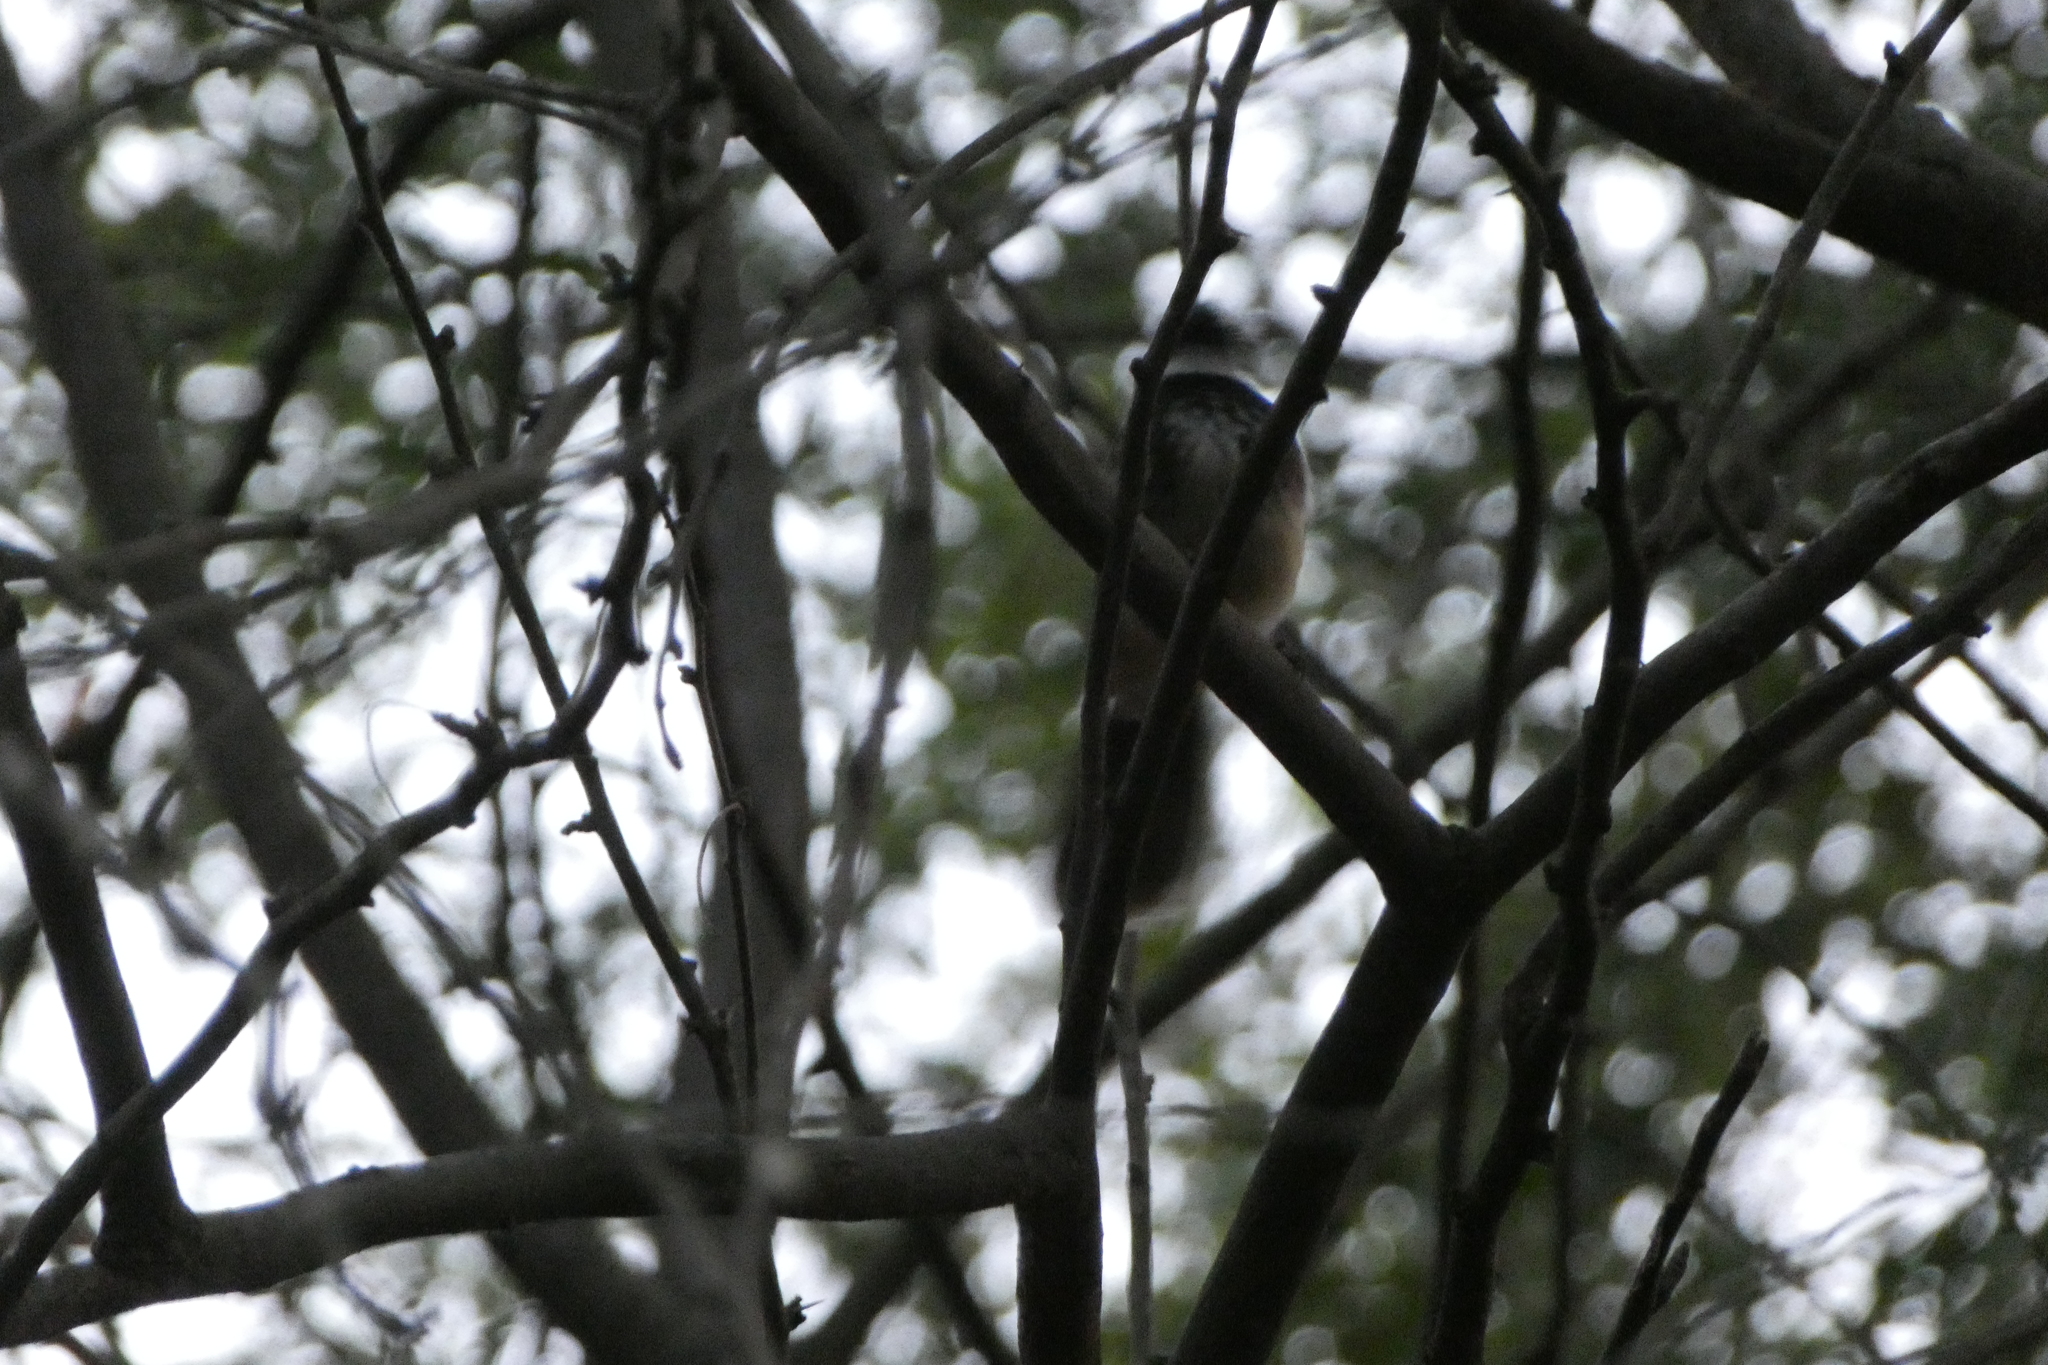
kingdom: Animalia
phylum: Chordata
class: Aves
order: Passeriformes
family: Rhipiduridae
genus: Rhipidura
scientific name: Rhipidura albogularis
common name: White-spotted fantail
